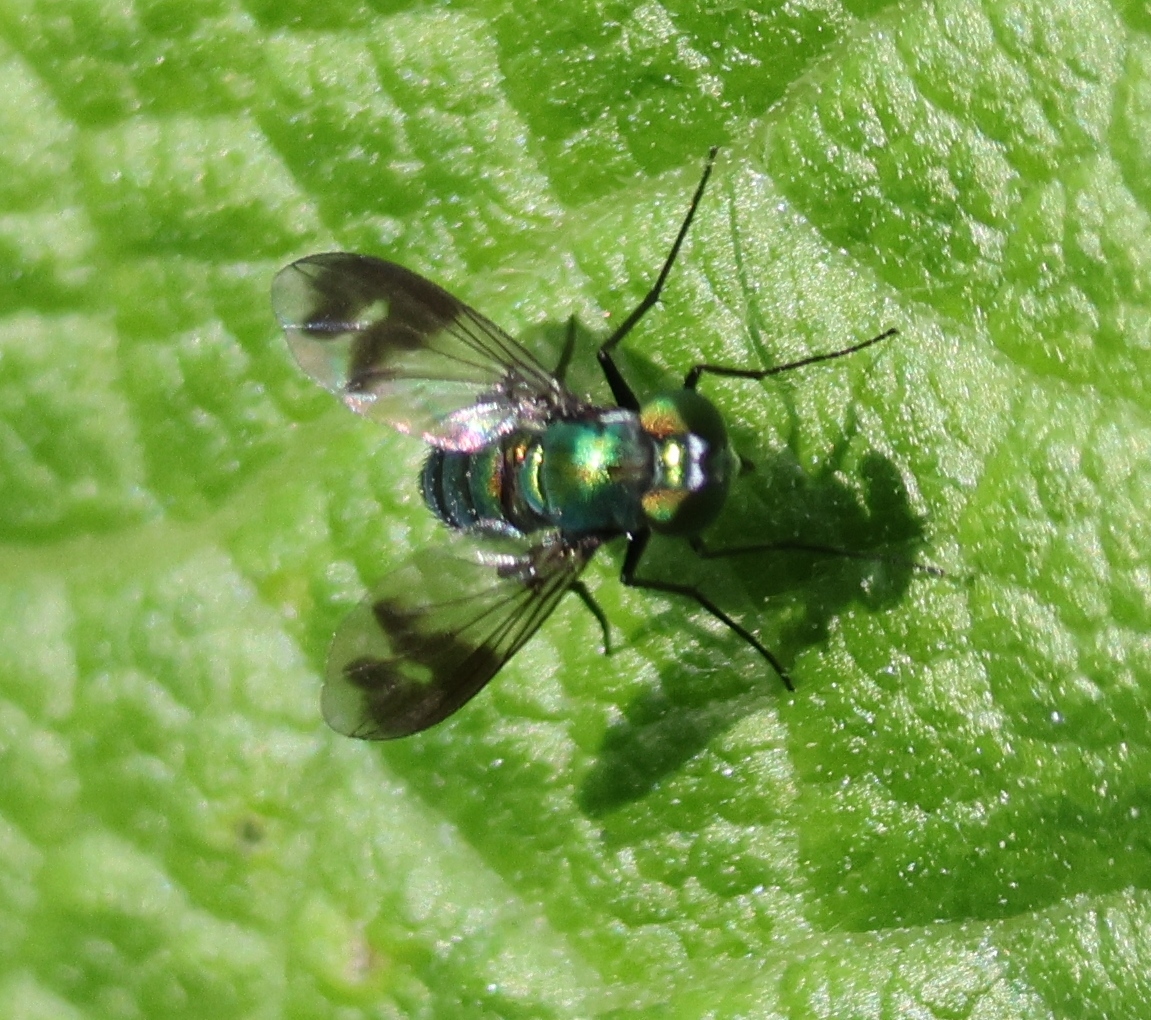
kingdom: Animalia
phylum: Arthropoda
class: Insecta
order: Diptera
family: Dolichopodidae
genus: Condylostylus
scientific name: Condylostylus patibulatus
